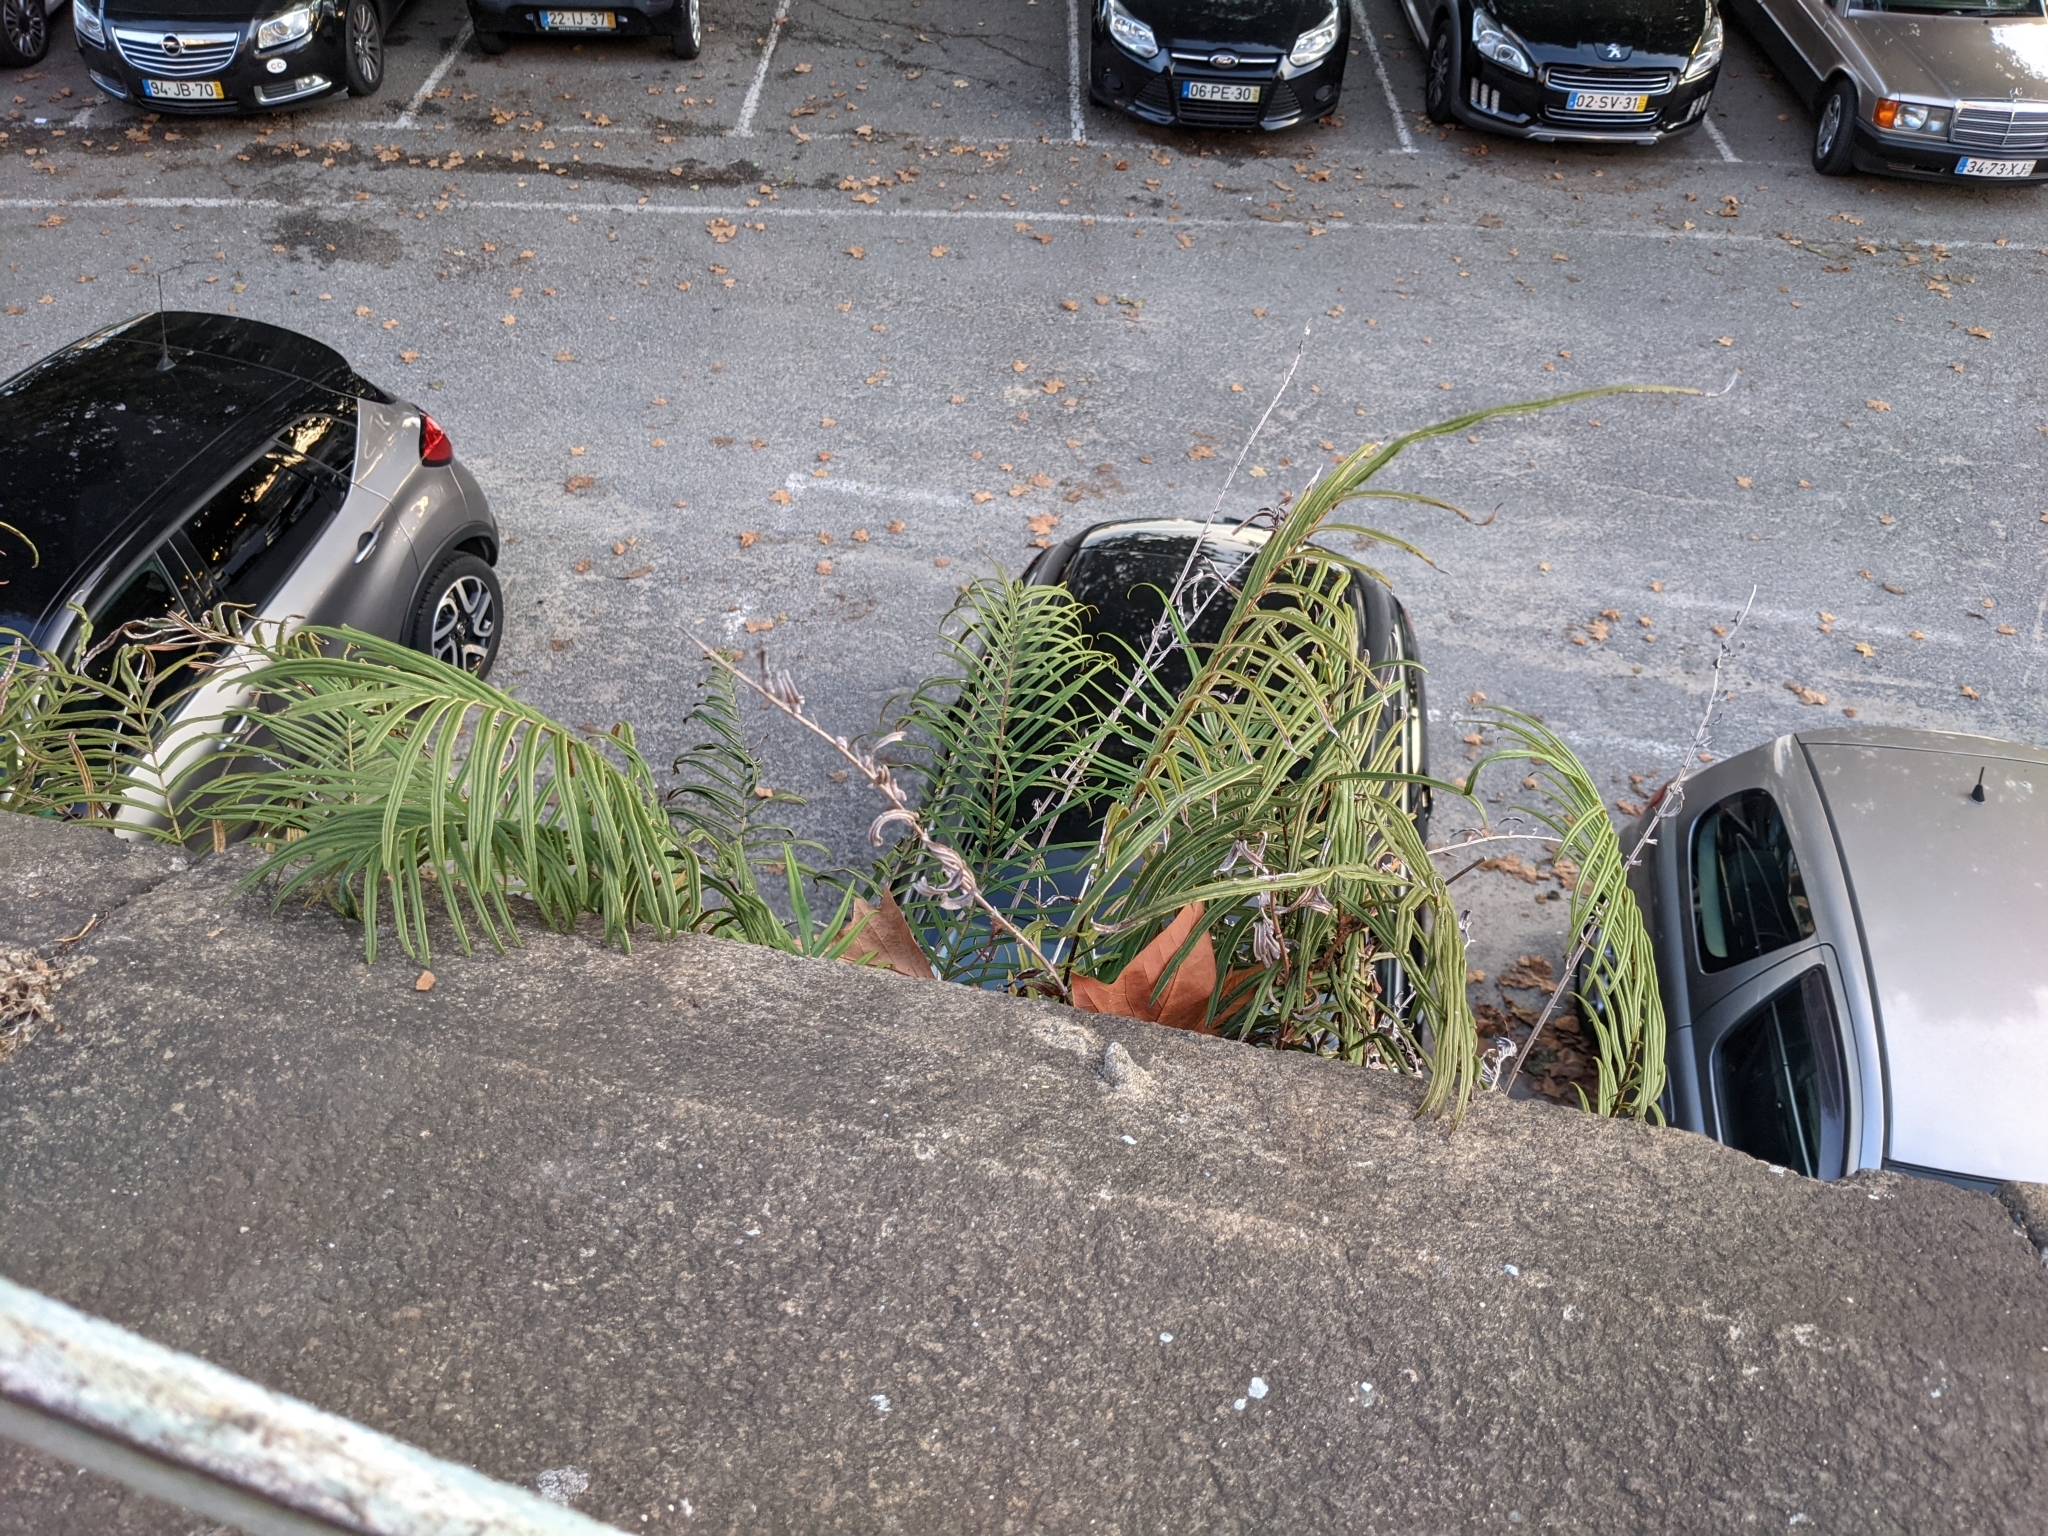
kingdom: Plantae
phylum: Tracheophyta
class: Polypodiopsida
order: Polypodiales
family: Pteridaceae
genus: Pteris
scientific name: Pteris vittata
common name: Ladder brake
